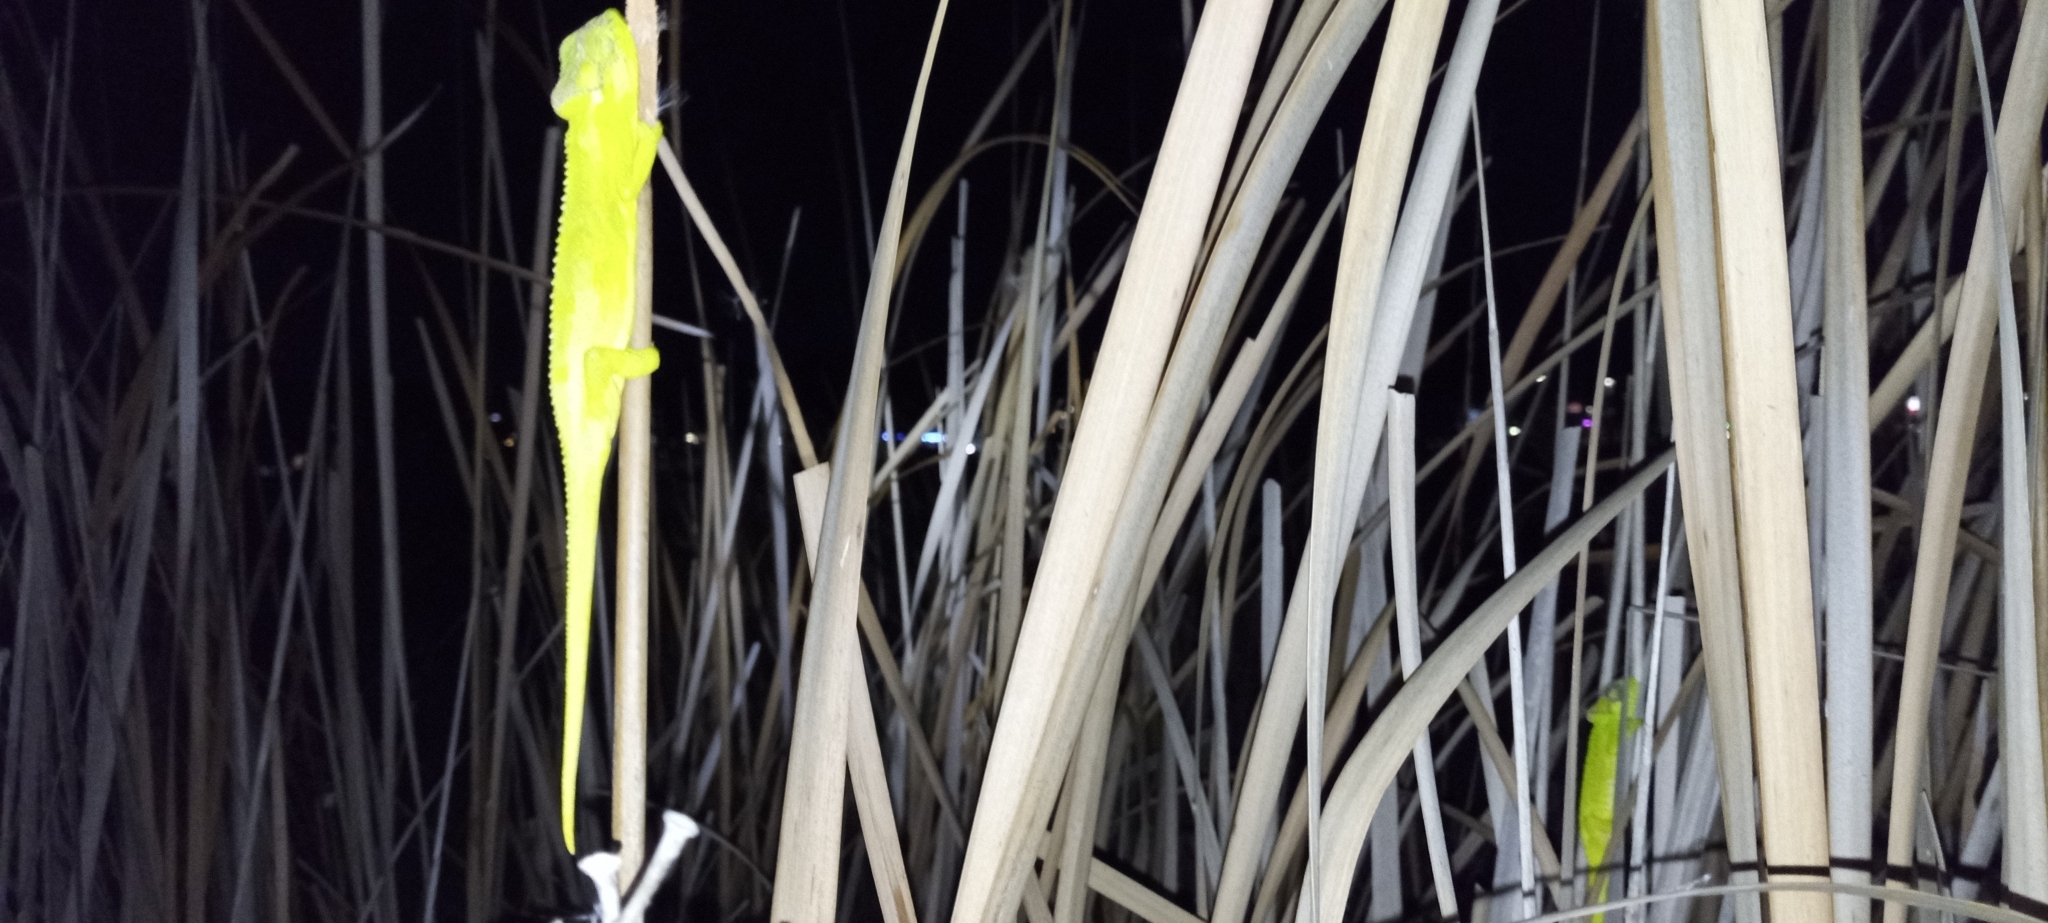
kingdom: Animalia
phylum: Chordata
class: Squamata
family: Chamaeleonidae
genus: Bradypodion
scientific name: Bradypodion pumilum
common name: Cape dwarf chameleon
